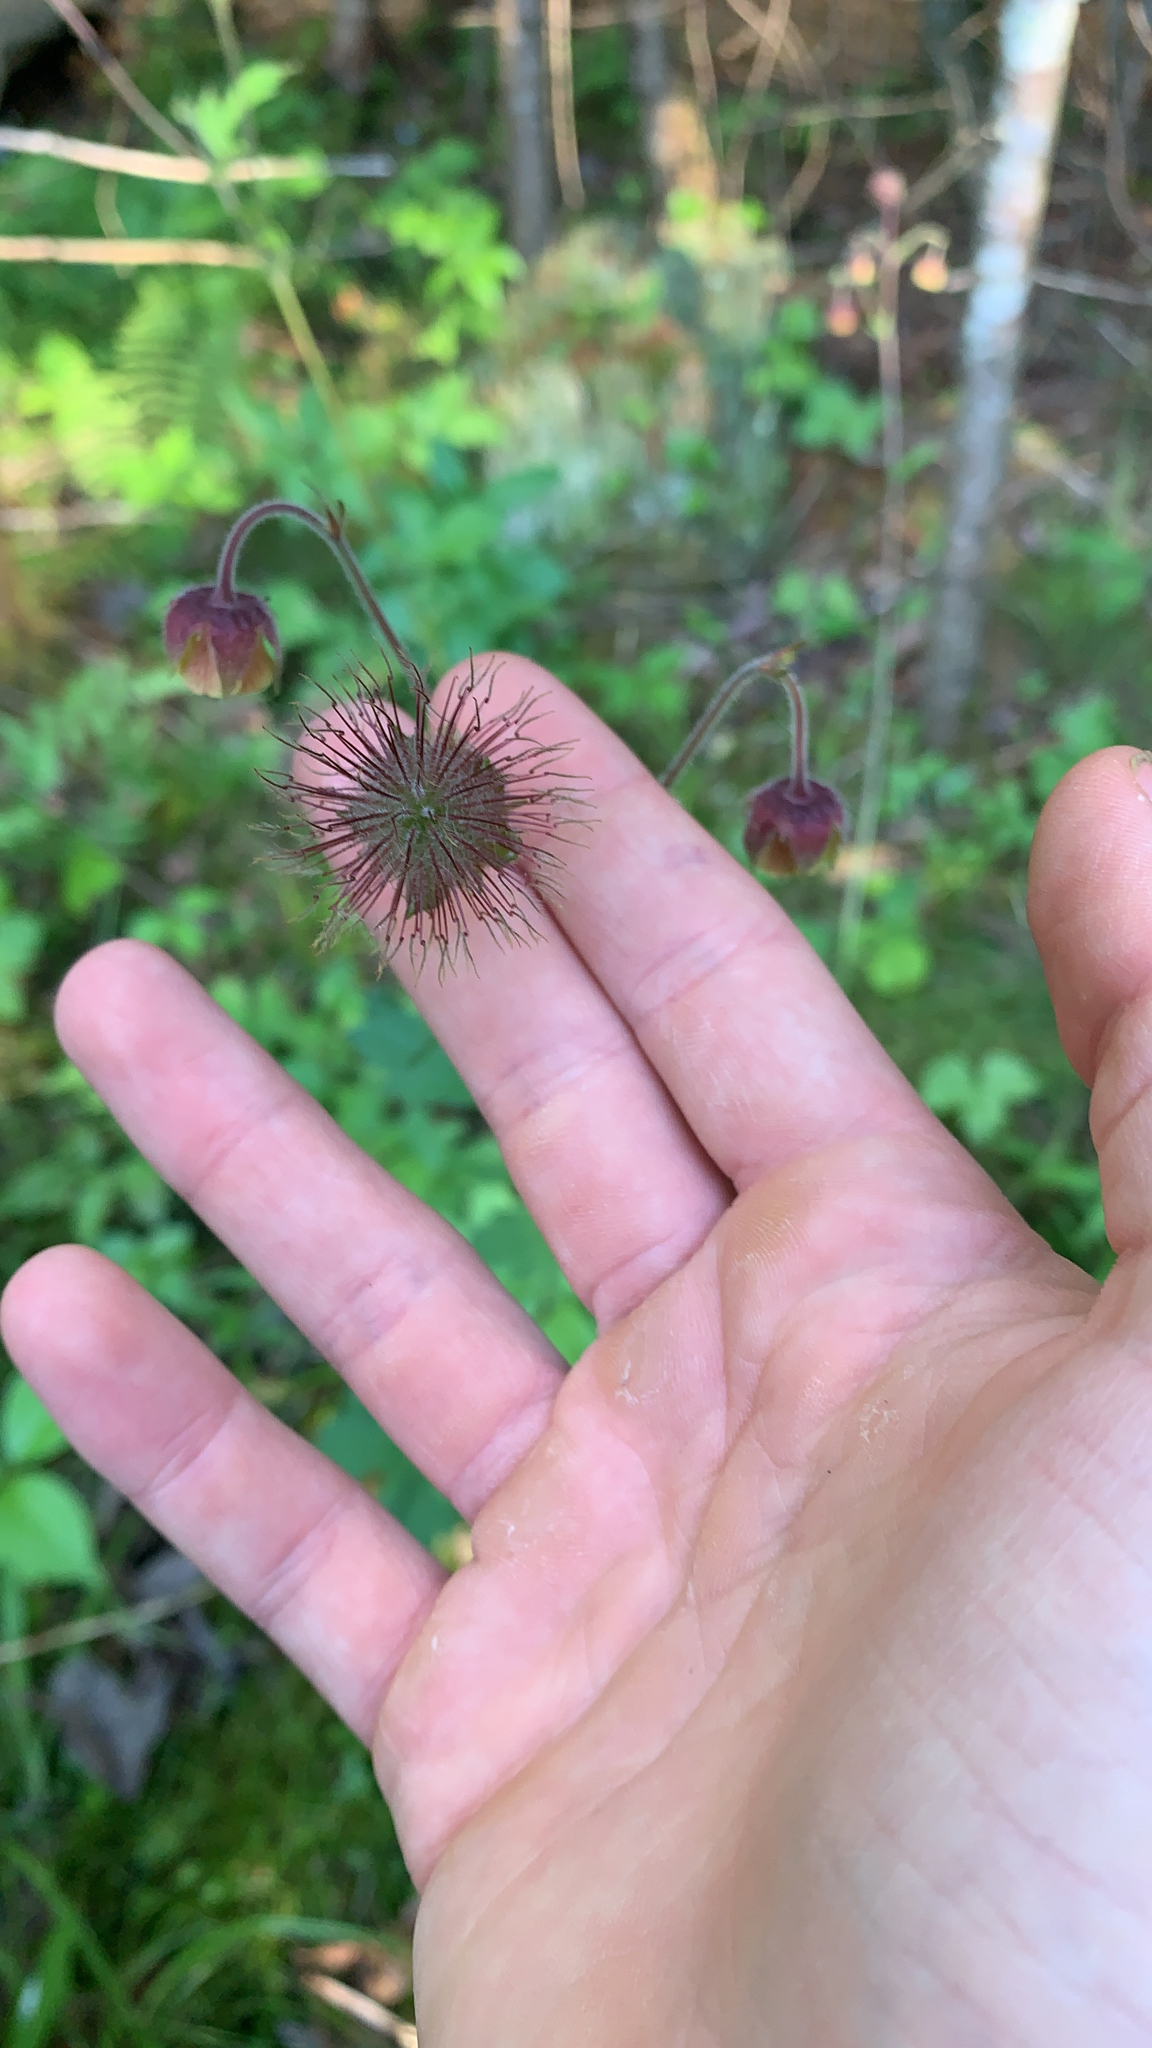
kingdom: Plantae
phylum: Tracheophyta
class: Magnoliopsida
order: Rosales
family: Rosaceae
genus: Geum
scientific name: Geum rivale
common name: Water avens
